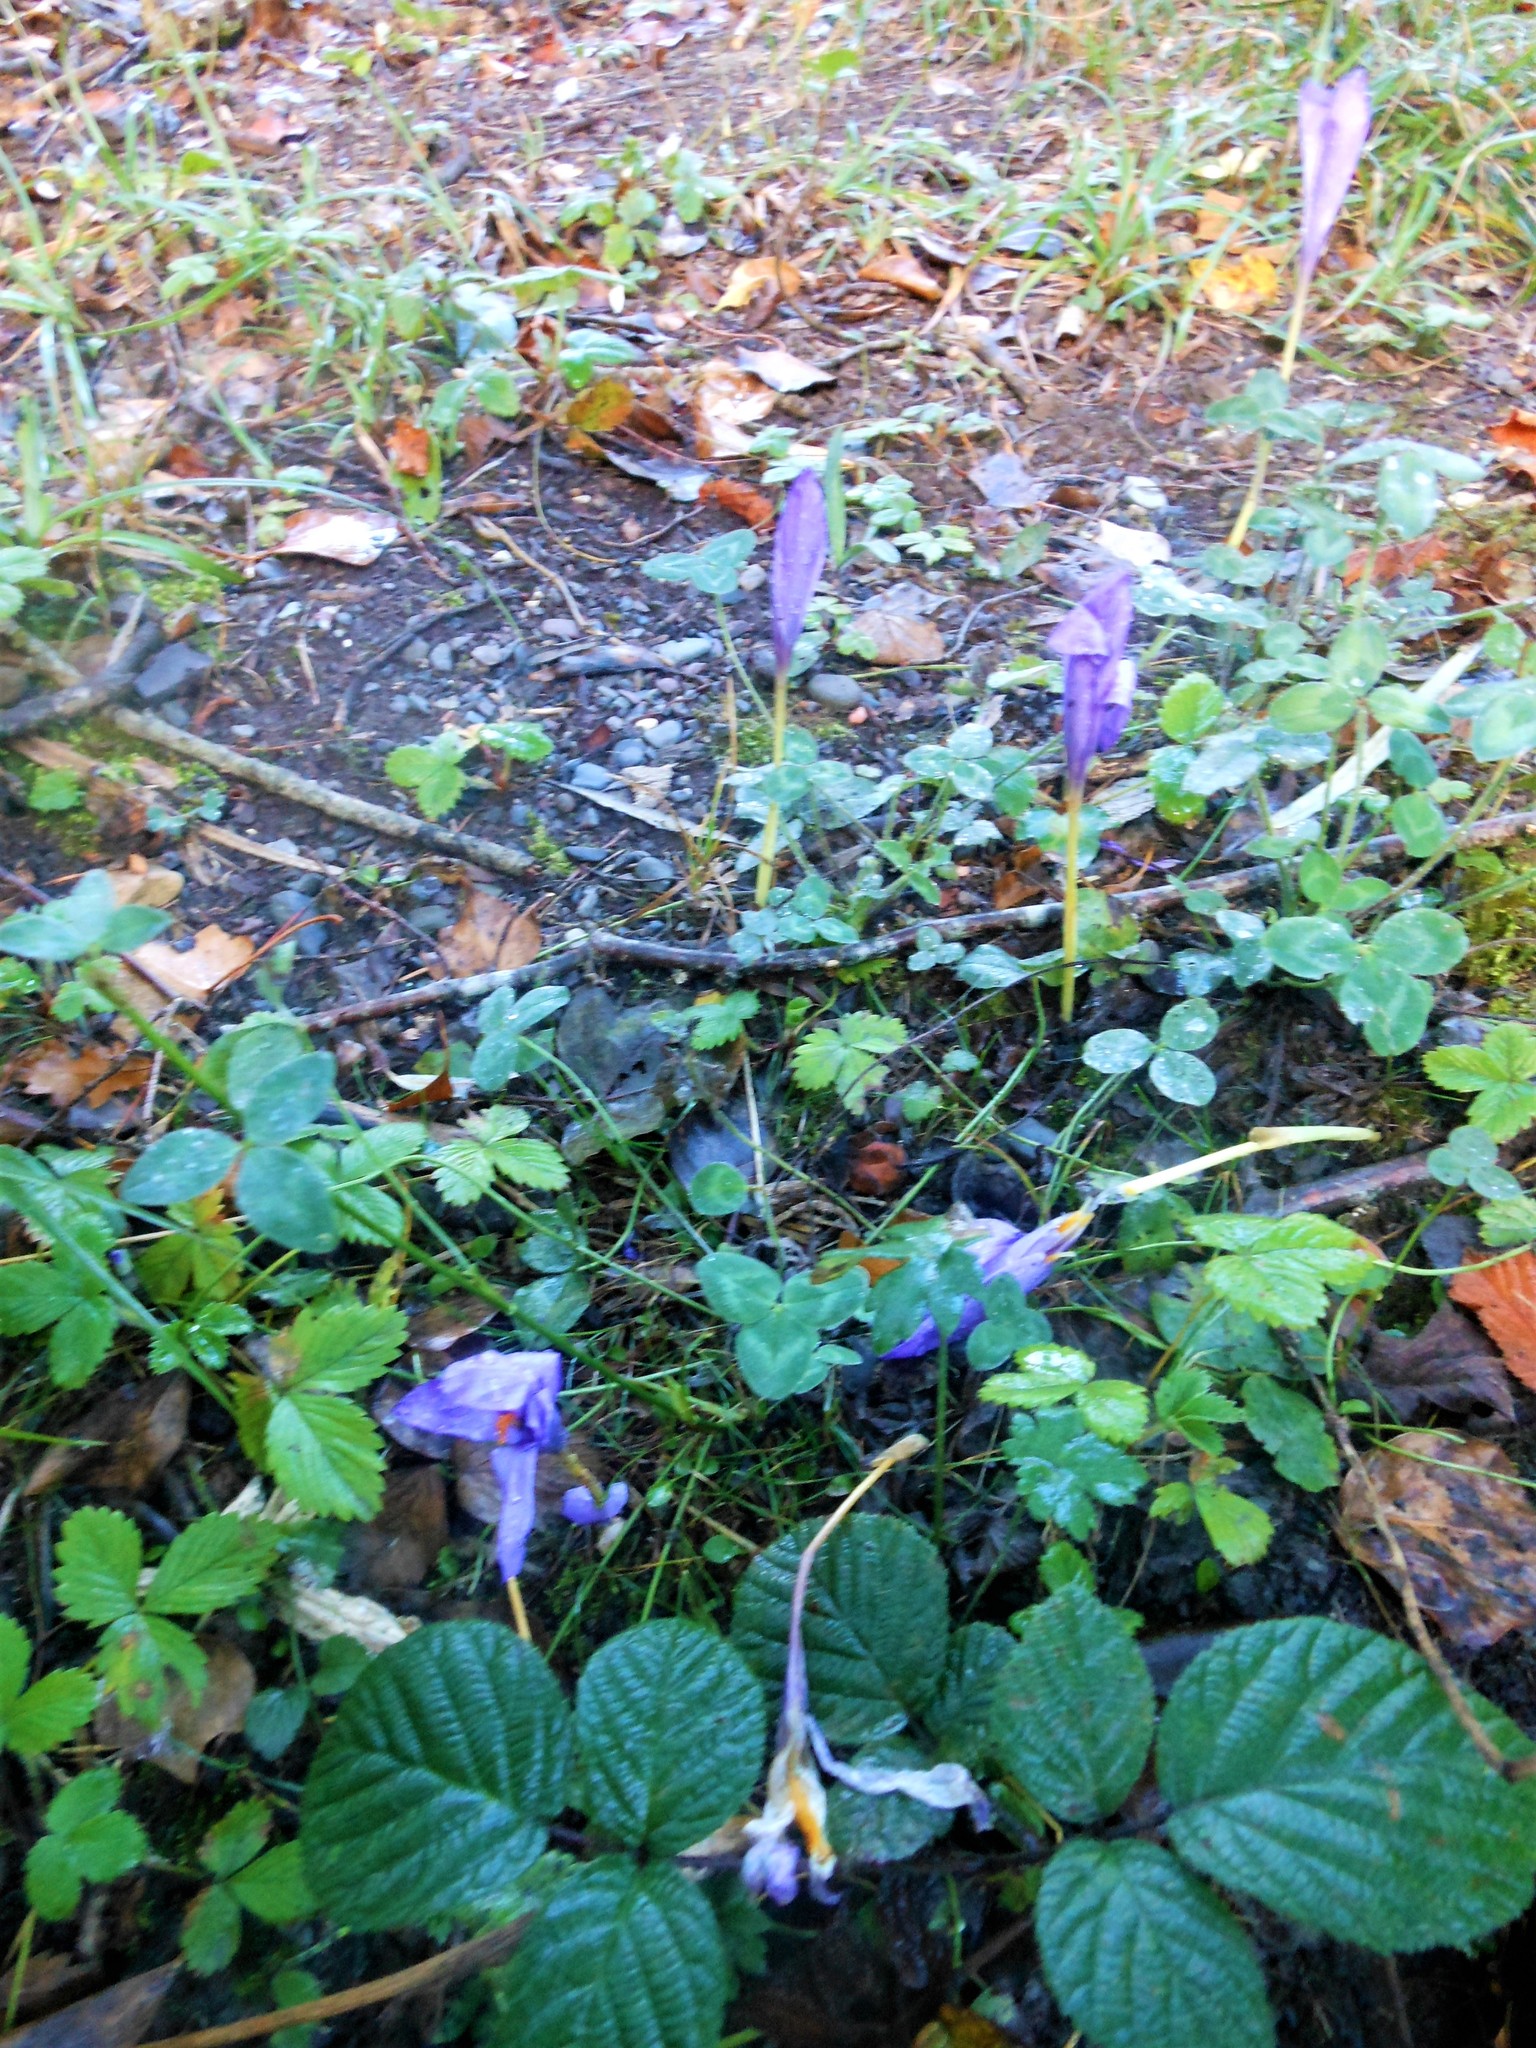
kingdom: Plantae
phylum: Tracheophyta
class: Liliopsida
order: Asparagales
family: Iridaceae
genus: Crocus
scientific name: Crocus nudiflorus
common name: Autumn crocus
